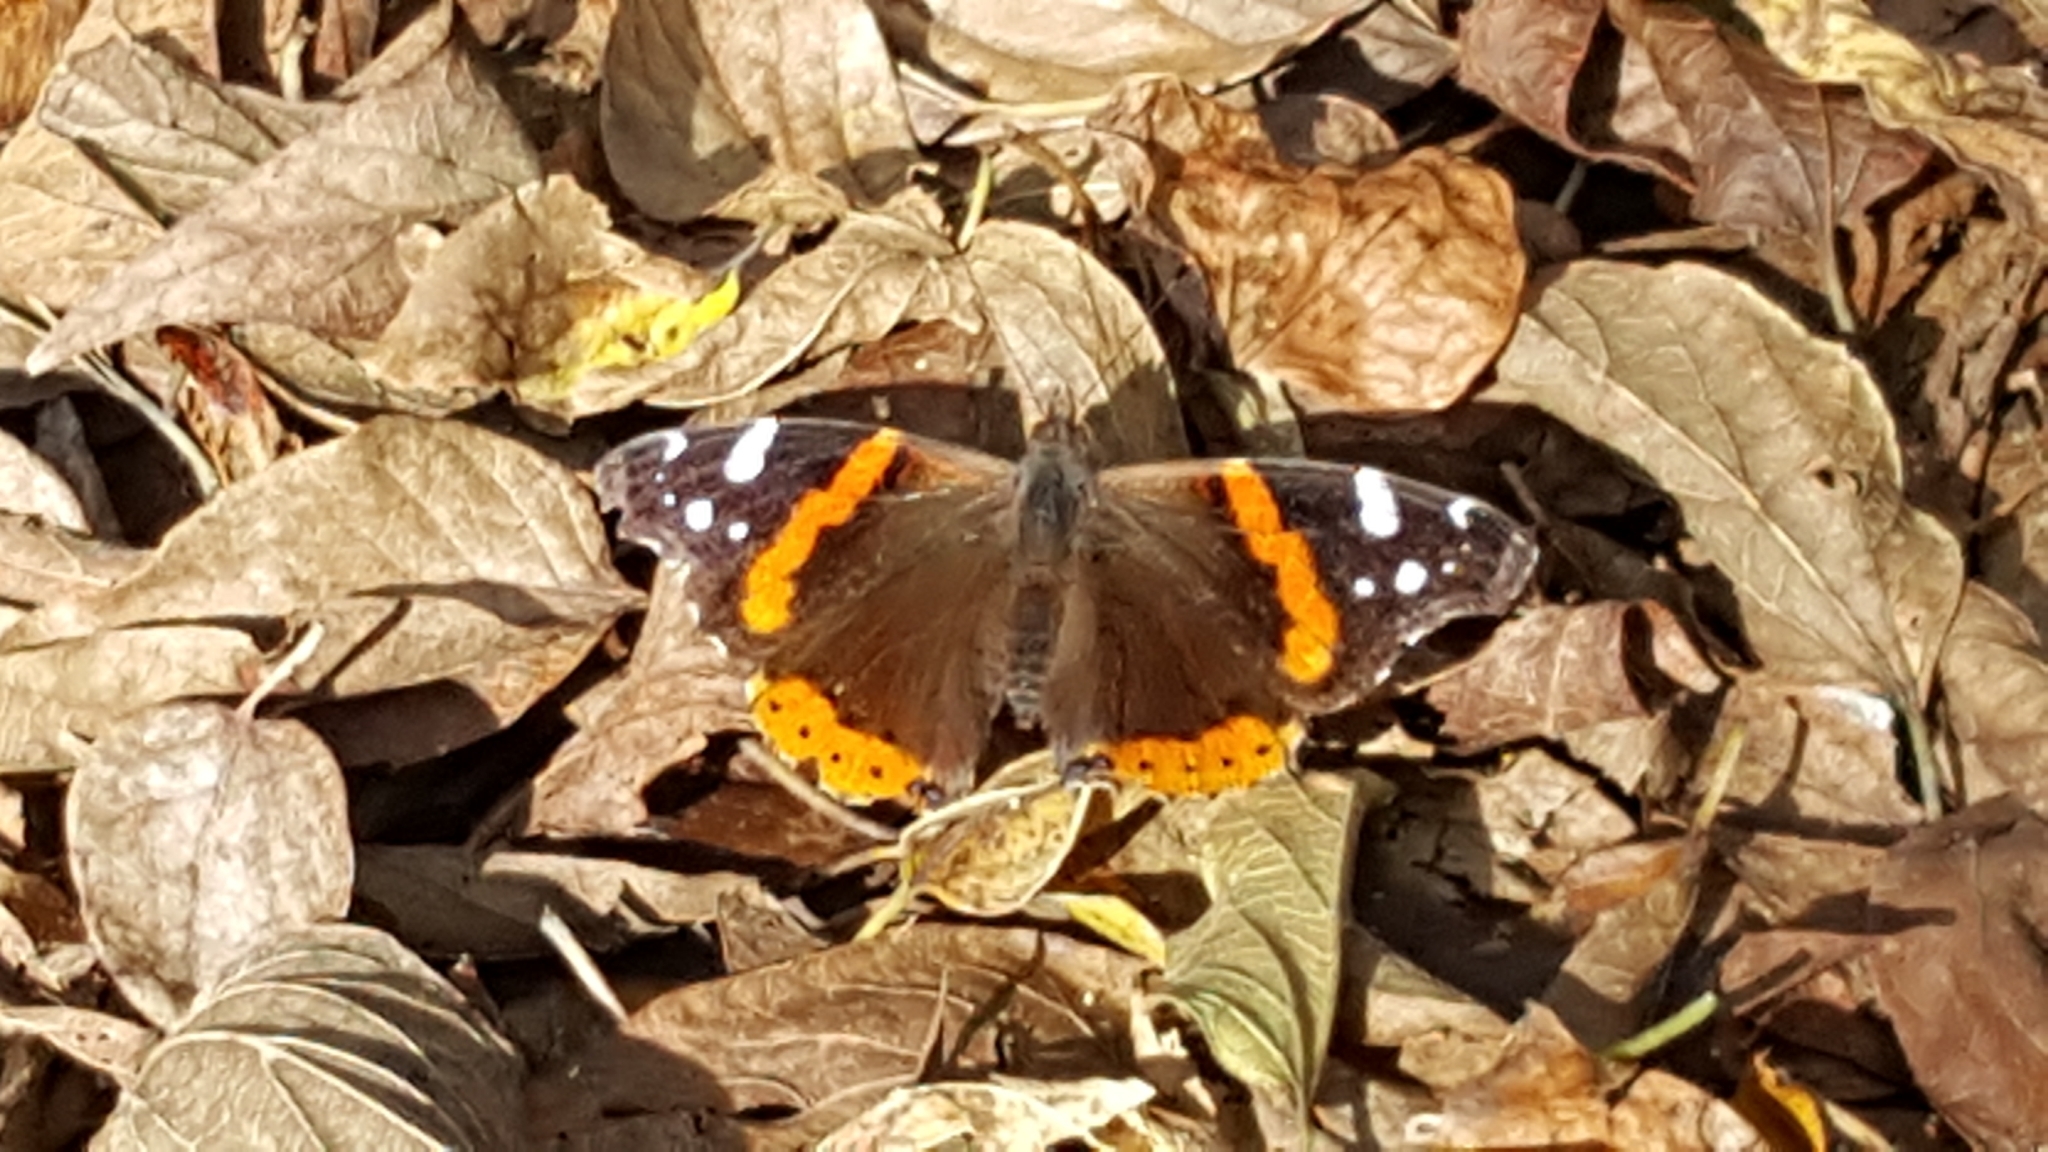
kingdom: Animalia
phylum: Arthropoda
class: Insecta
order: Lepidoptera
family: Nymphalidae
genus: Vanessa
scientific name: Vanessa atalanta
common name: Red admiral
